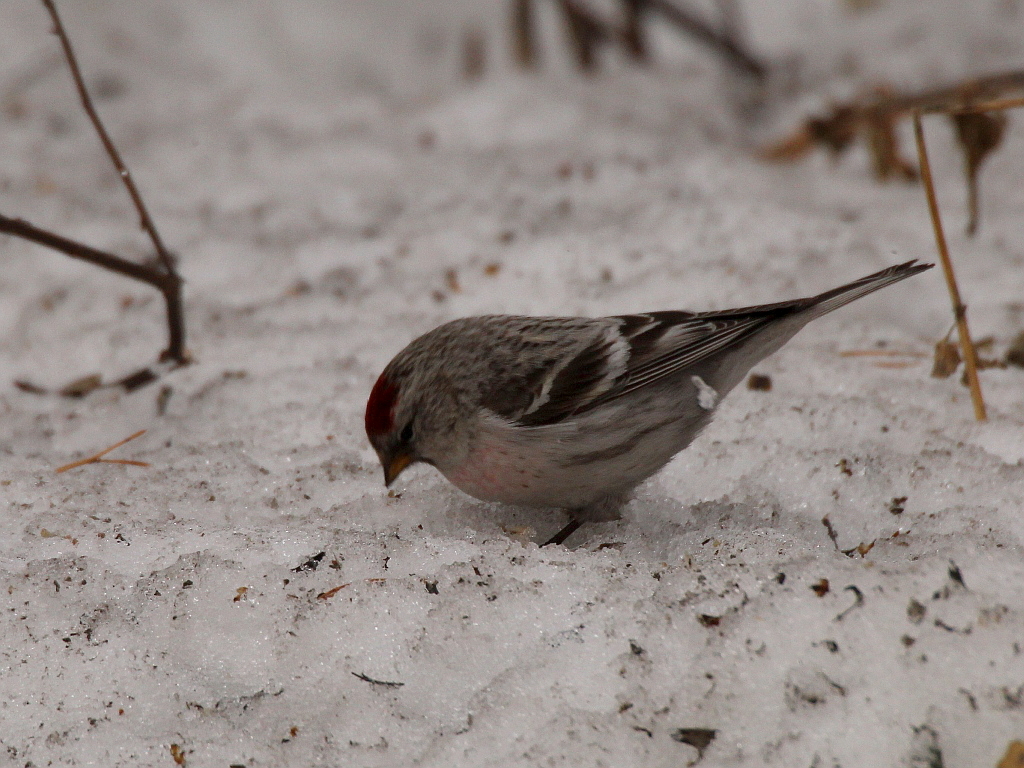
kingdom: Animalia
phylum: Chordata
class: Aves
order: Passeriformes
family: Fringillidae
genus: Acanthis
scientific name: Acanthis hornemanni
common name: Arctic redpoll
